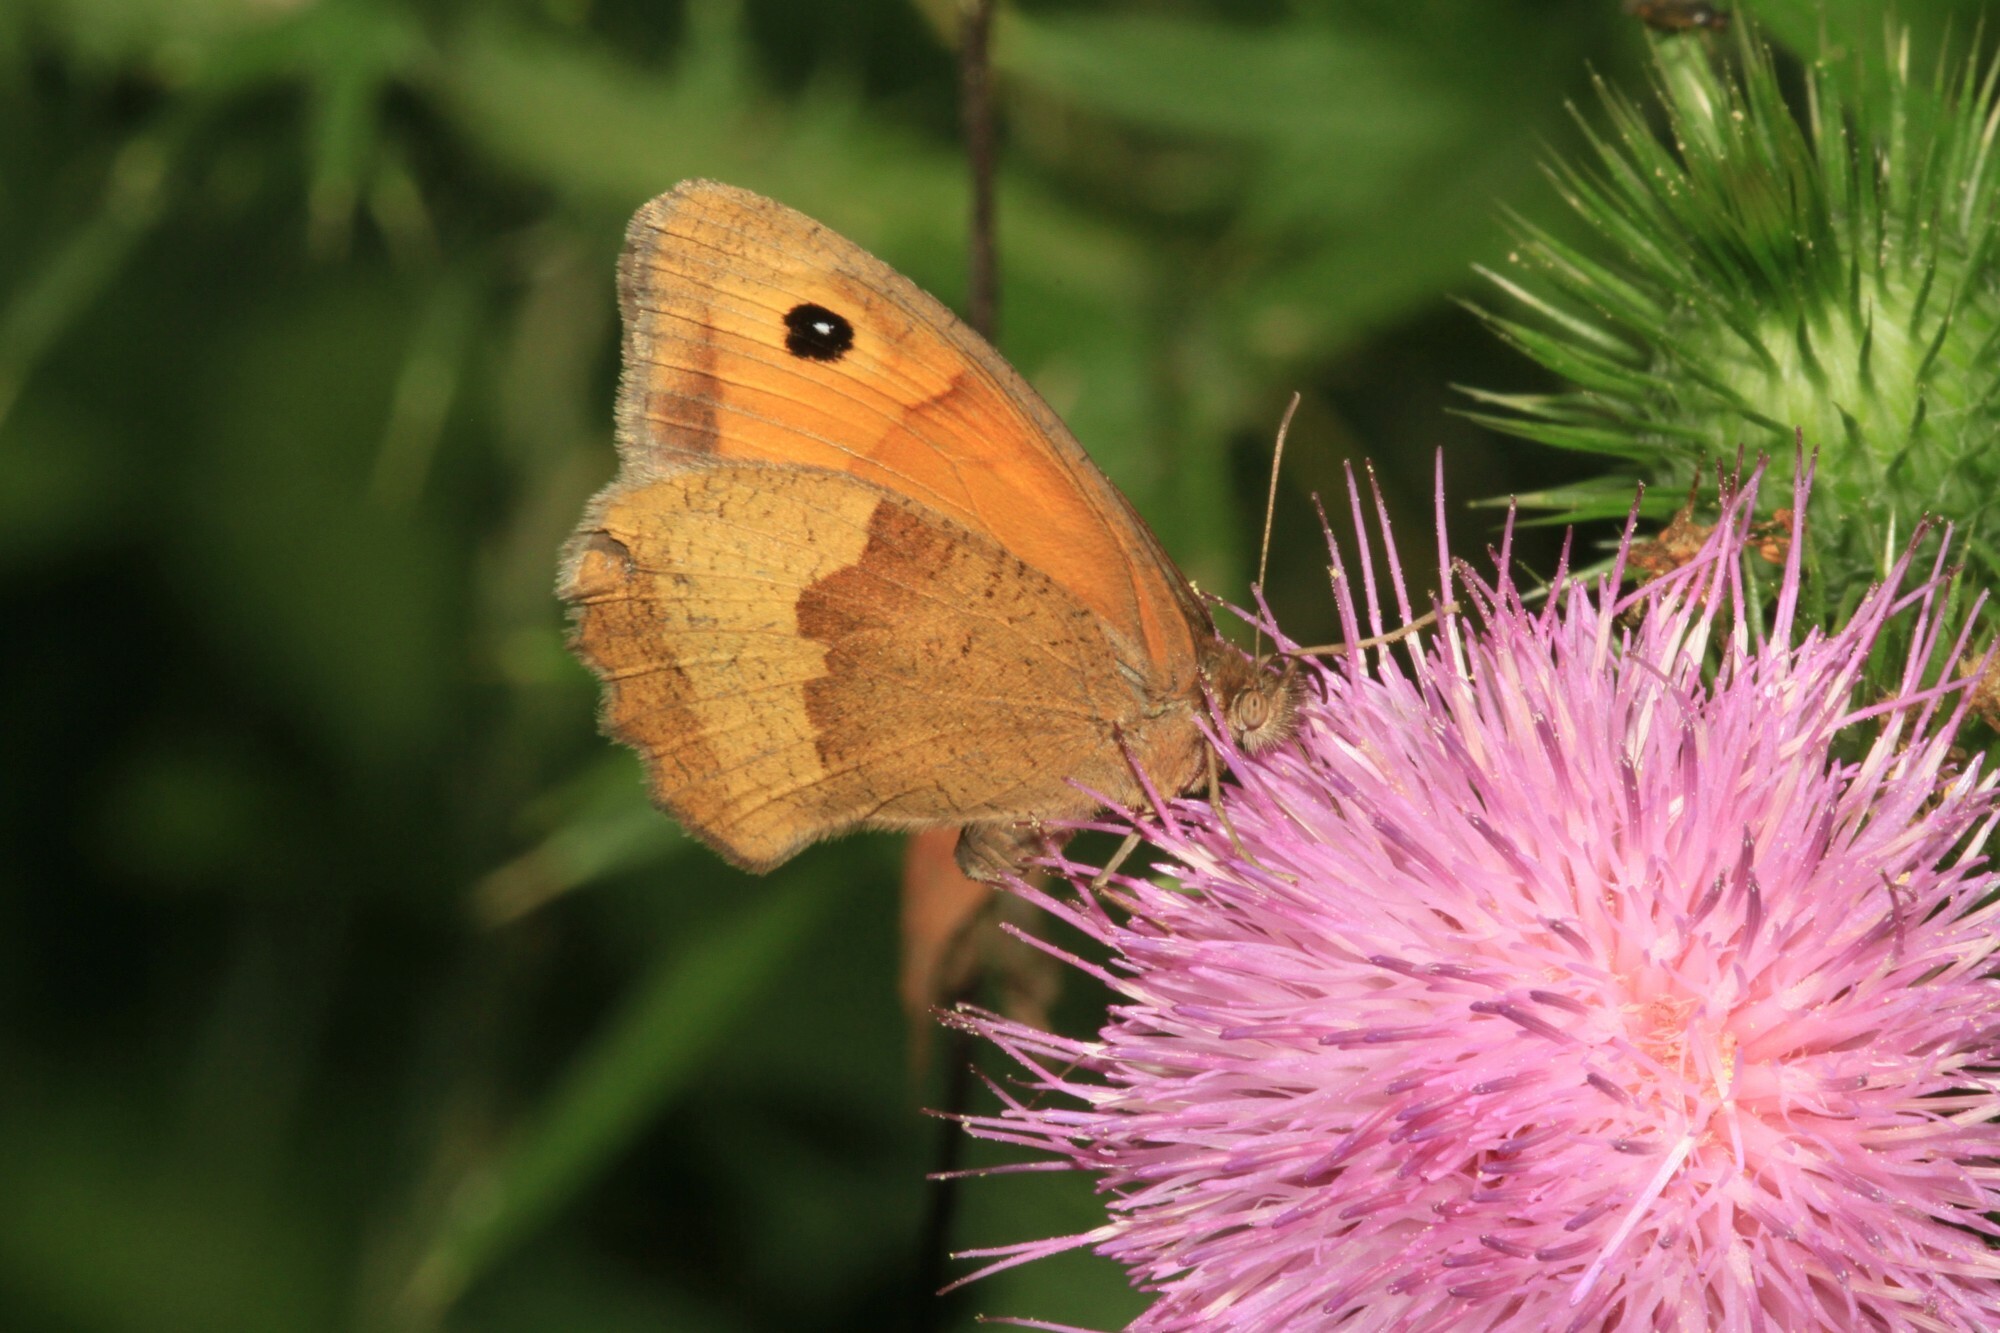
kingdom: Animalia
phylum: Arthropoda
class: Insecta
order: Lepidoptera
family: Nymphalidae
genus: Maniola
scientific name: Maniola jurtina
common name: Meadow brown
